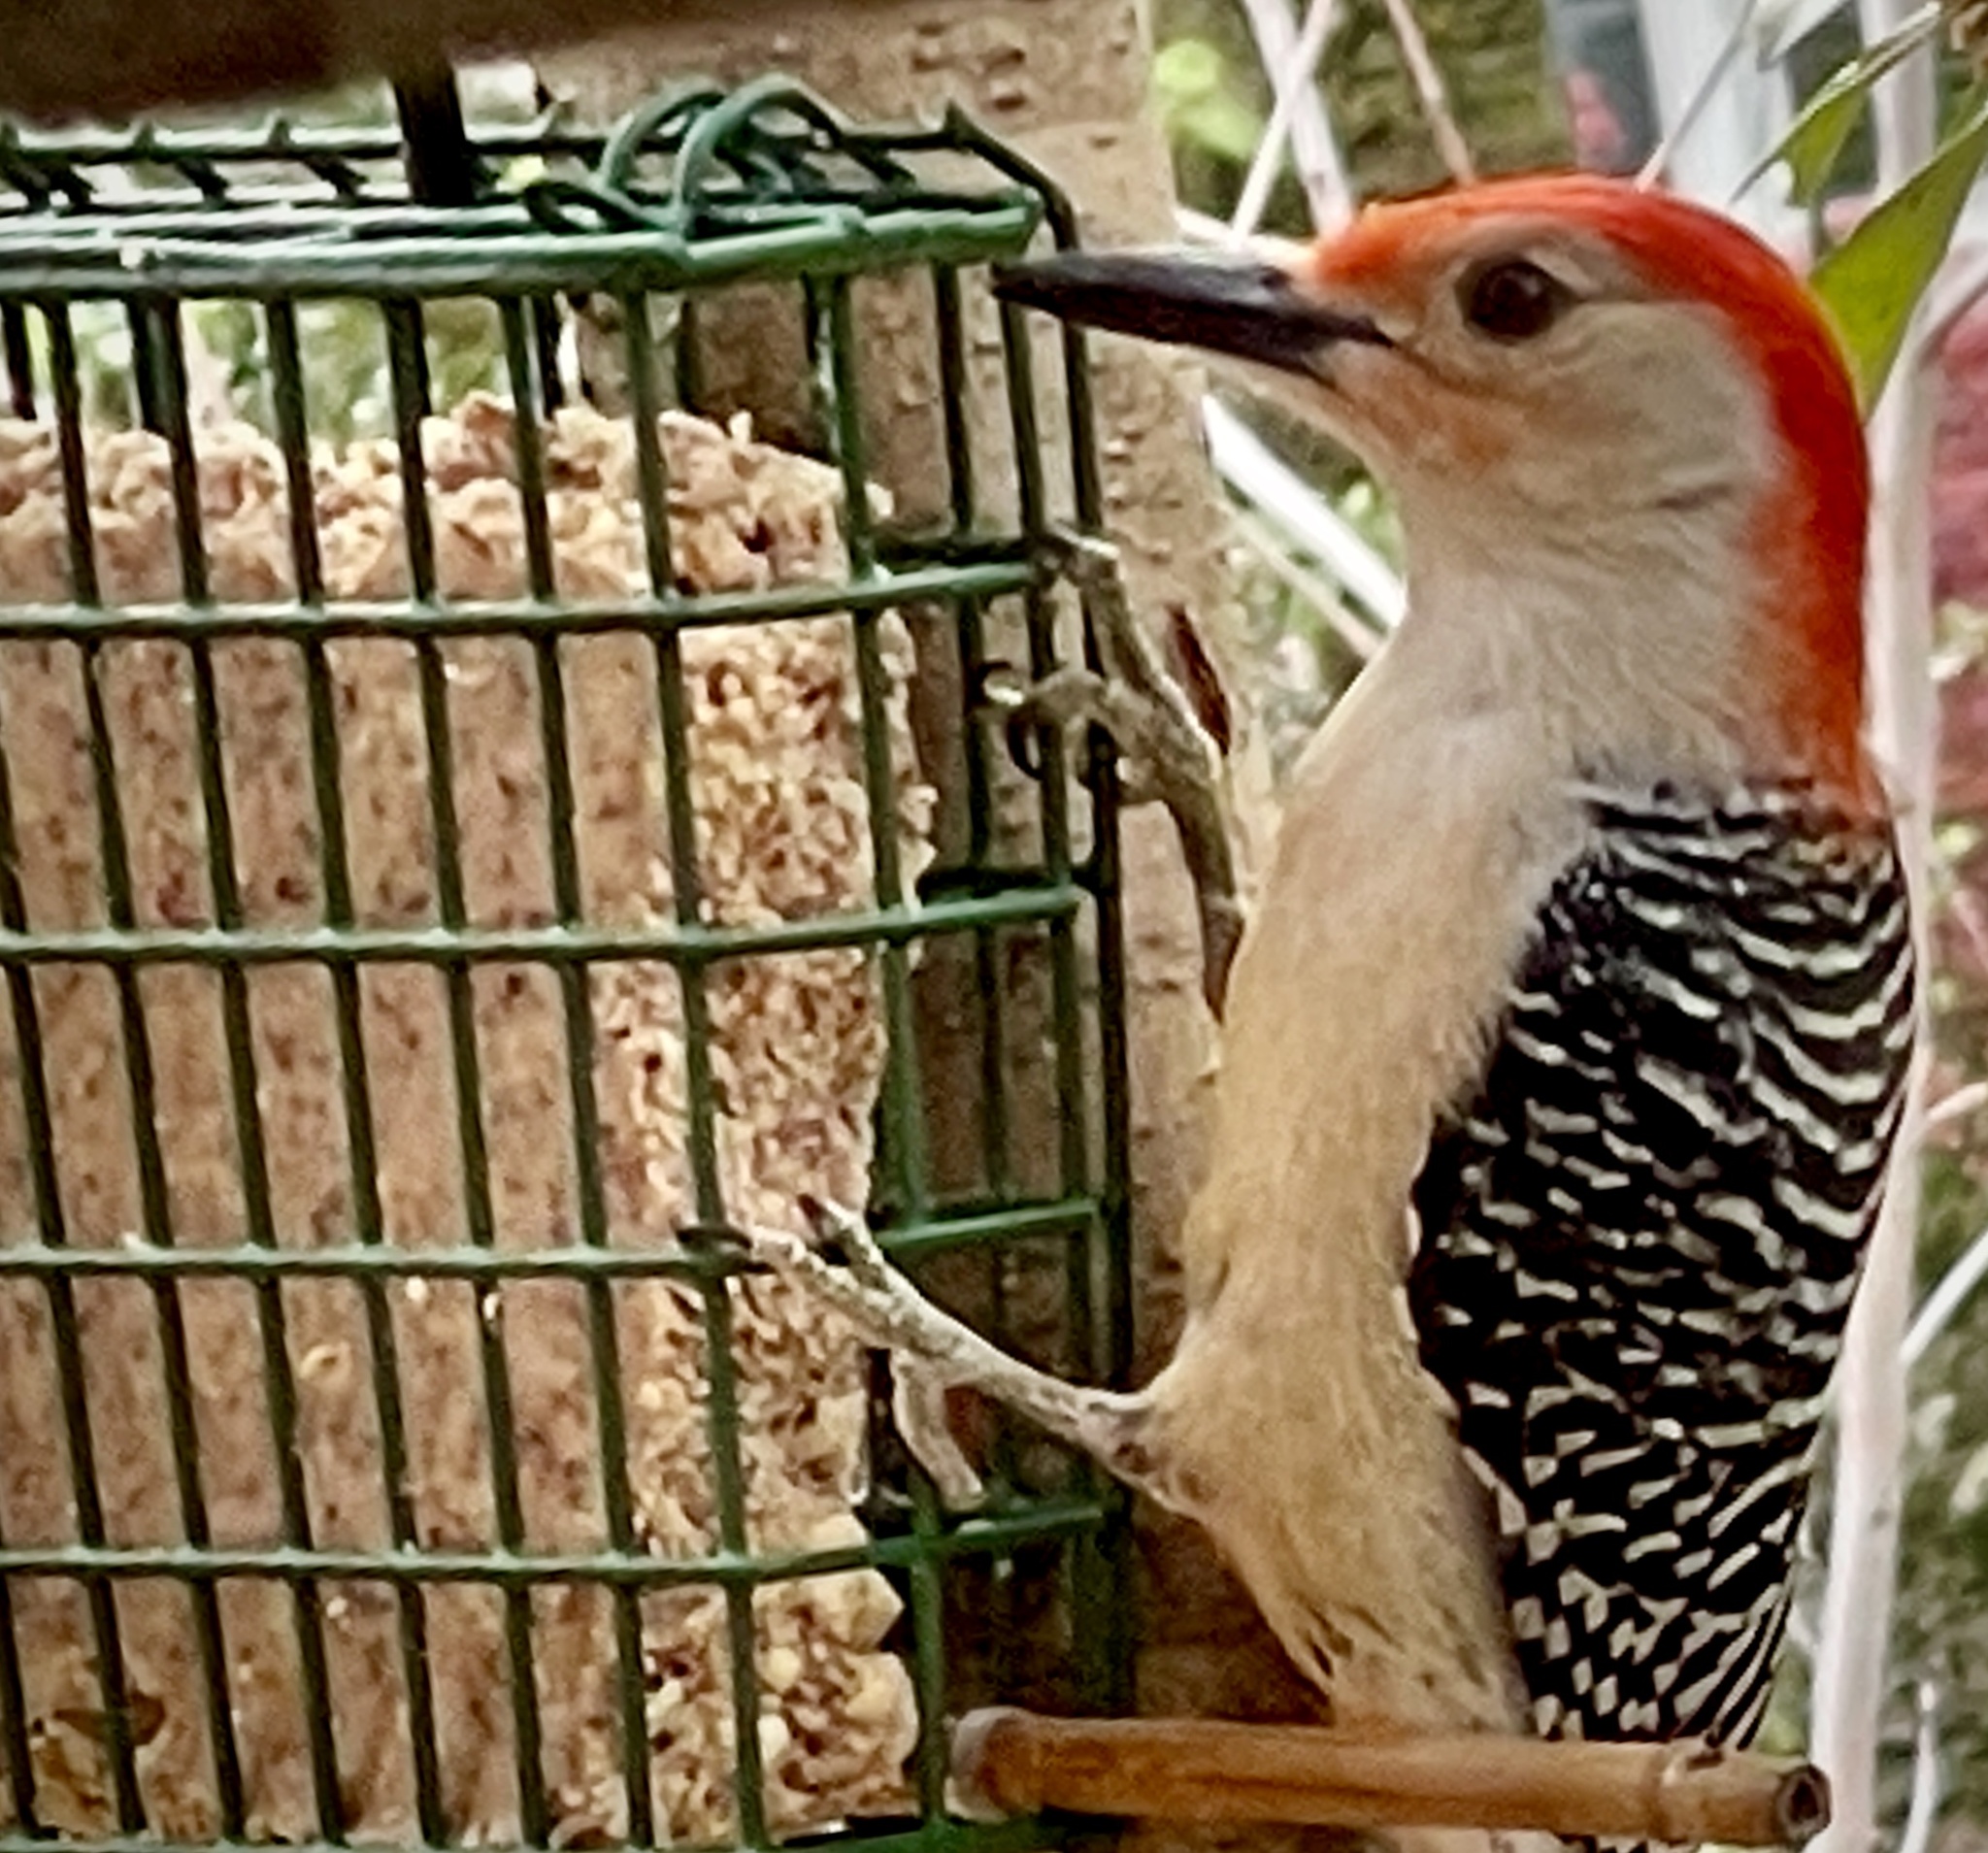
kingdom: Animalia
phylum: Chordata
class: Aves
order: Piciformes
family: Picidae
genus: Melanerpes
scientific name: Melanerpes carolinus
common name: Red-bellied woodpecker
